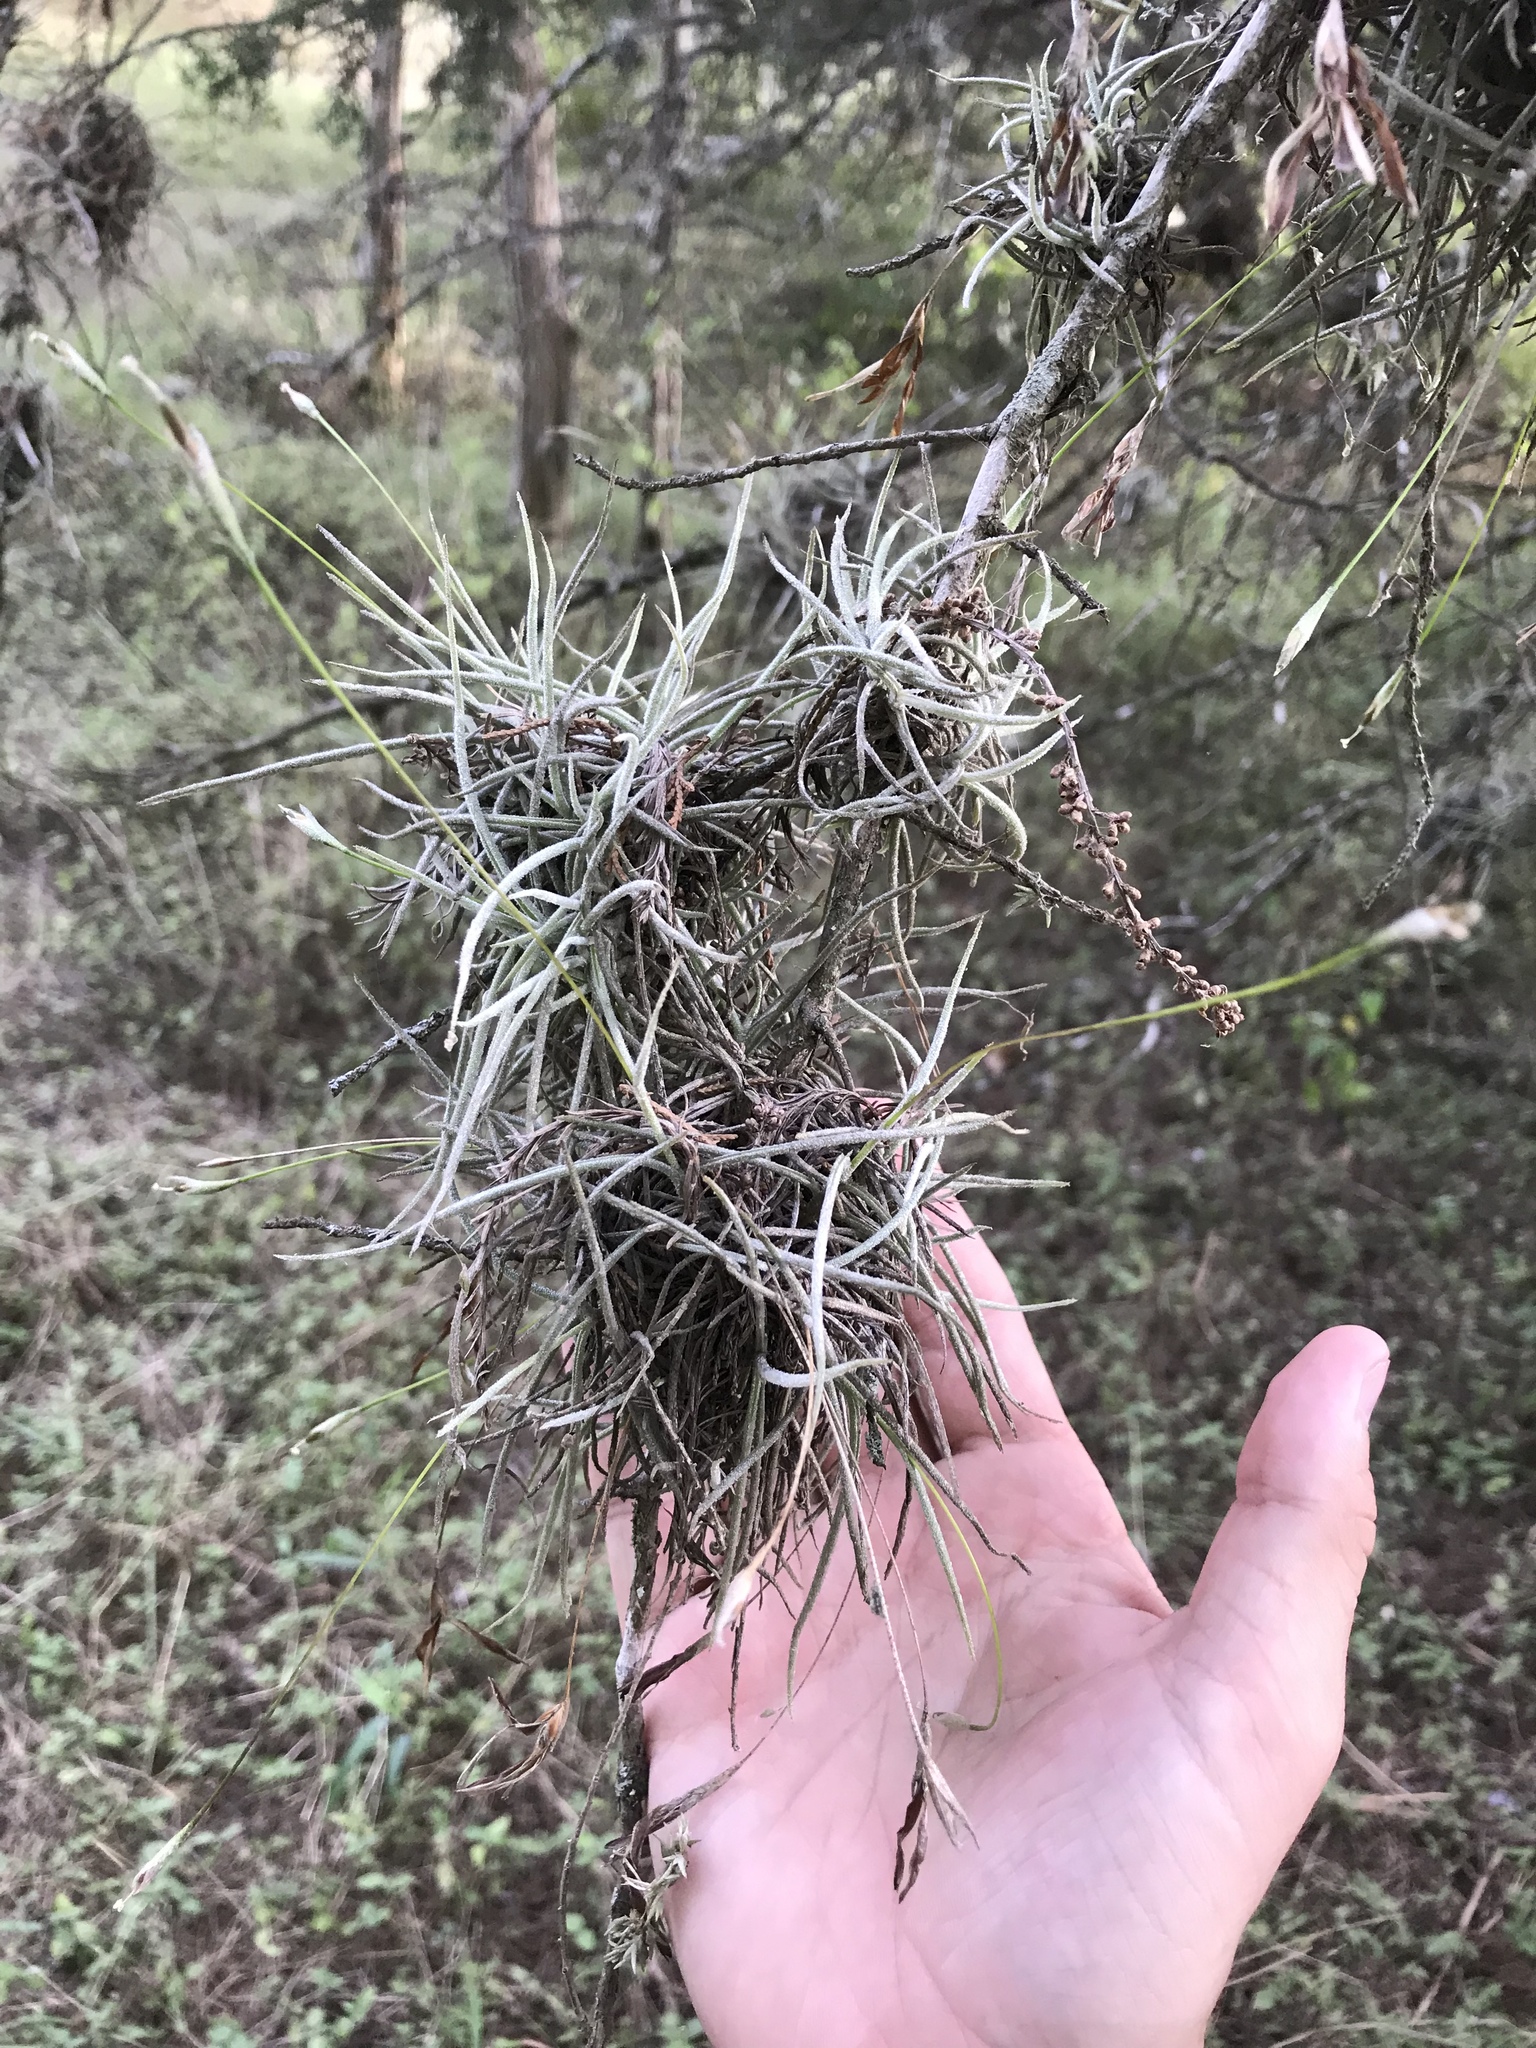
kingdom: Plantae
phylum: Tracheophyta
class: Liliopsida
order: Poales
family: Bromeliaceae
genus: Tillandsia
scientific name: Tillandsia recurvata
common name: Small ballmoss
